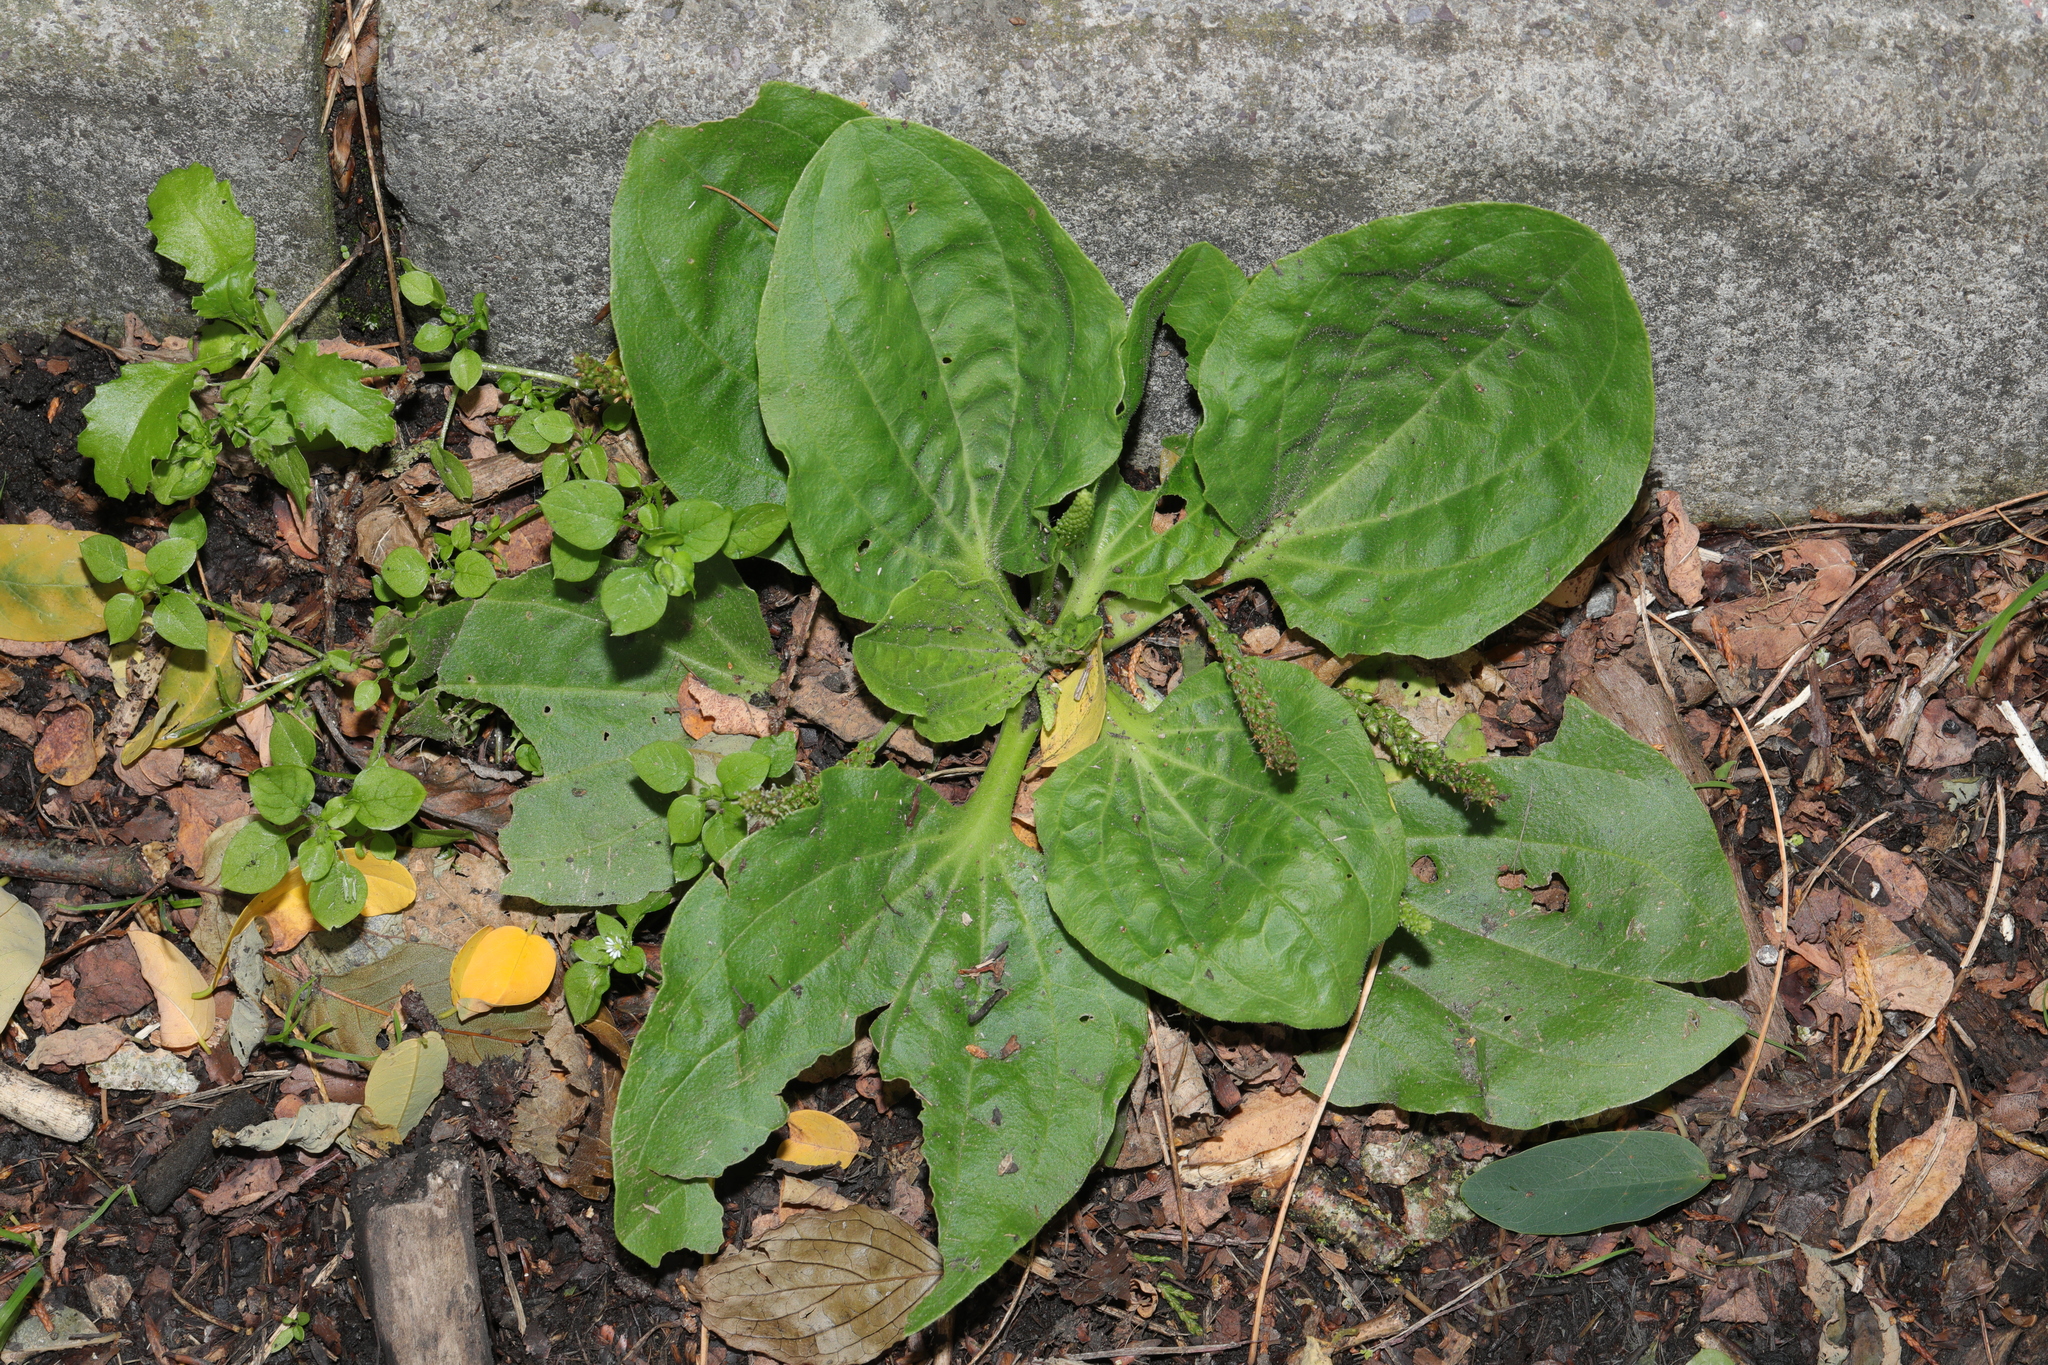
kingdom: Plantae
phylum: Tracheophyta
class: Magnoliopsida
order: Lamiales
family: Plantaginaceae
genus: Plantago
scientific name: Plantago major
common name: Common plantain
